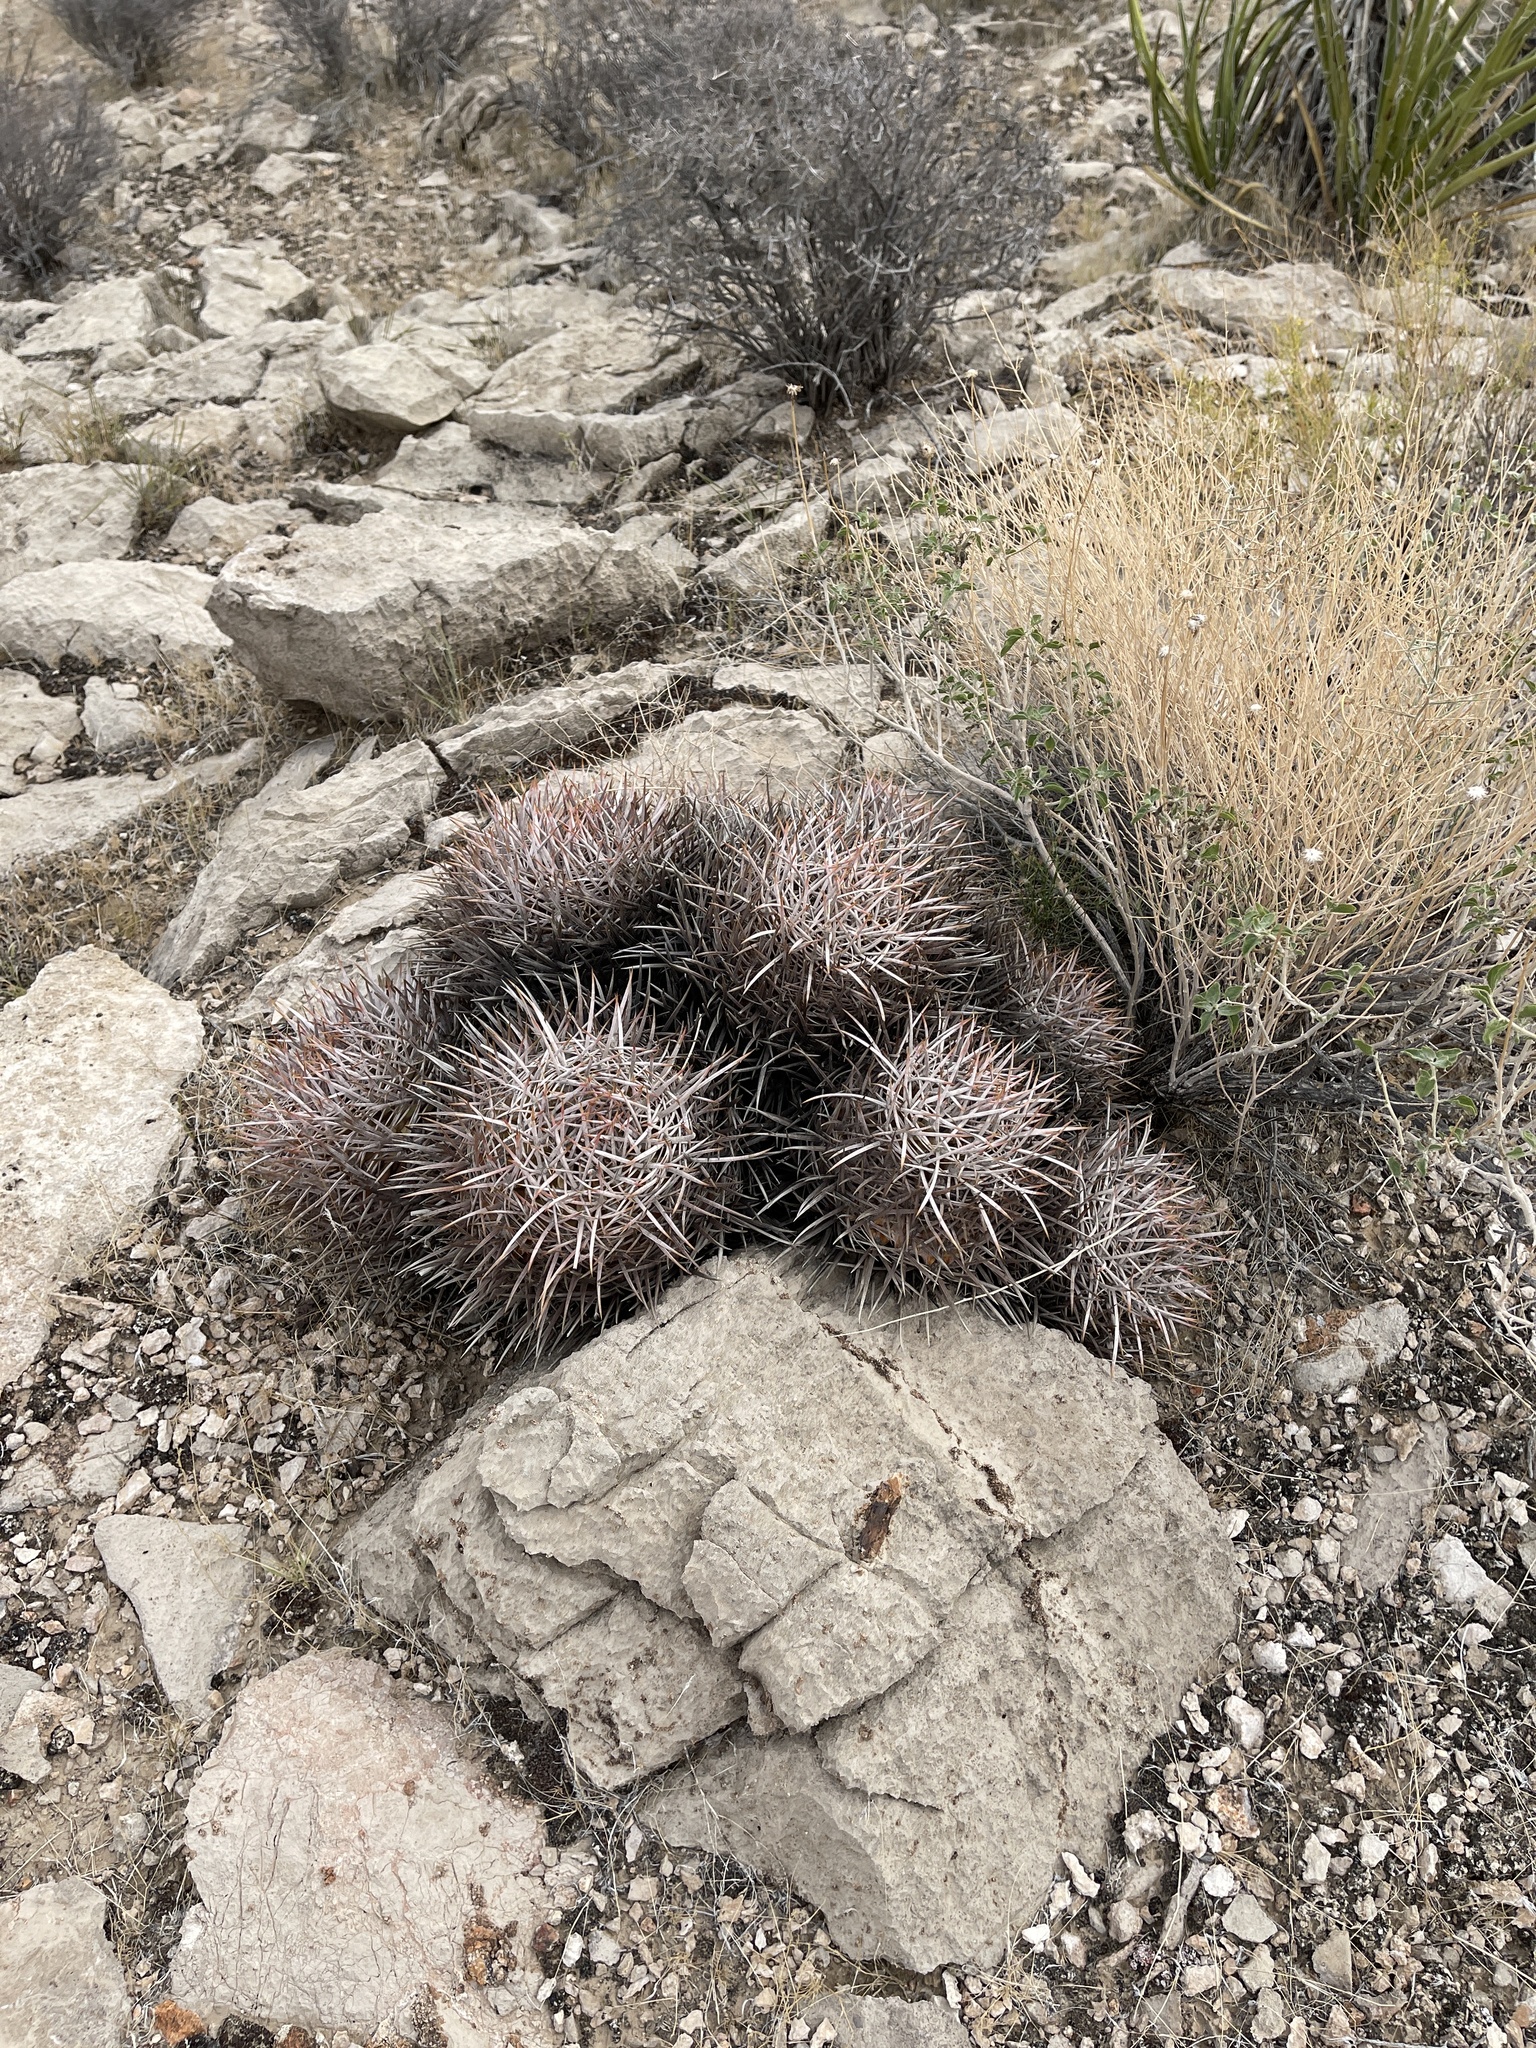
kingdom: Plantae
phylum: Tracheophyta
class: Magnoliopsida
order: Caryophyllales
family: Cactaceae
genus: Echinocactus
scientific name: Echinocactus polycephalus
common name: Cottontop cactus
